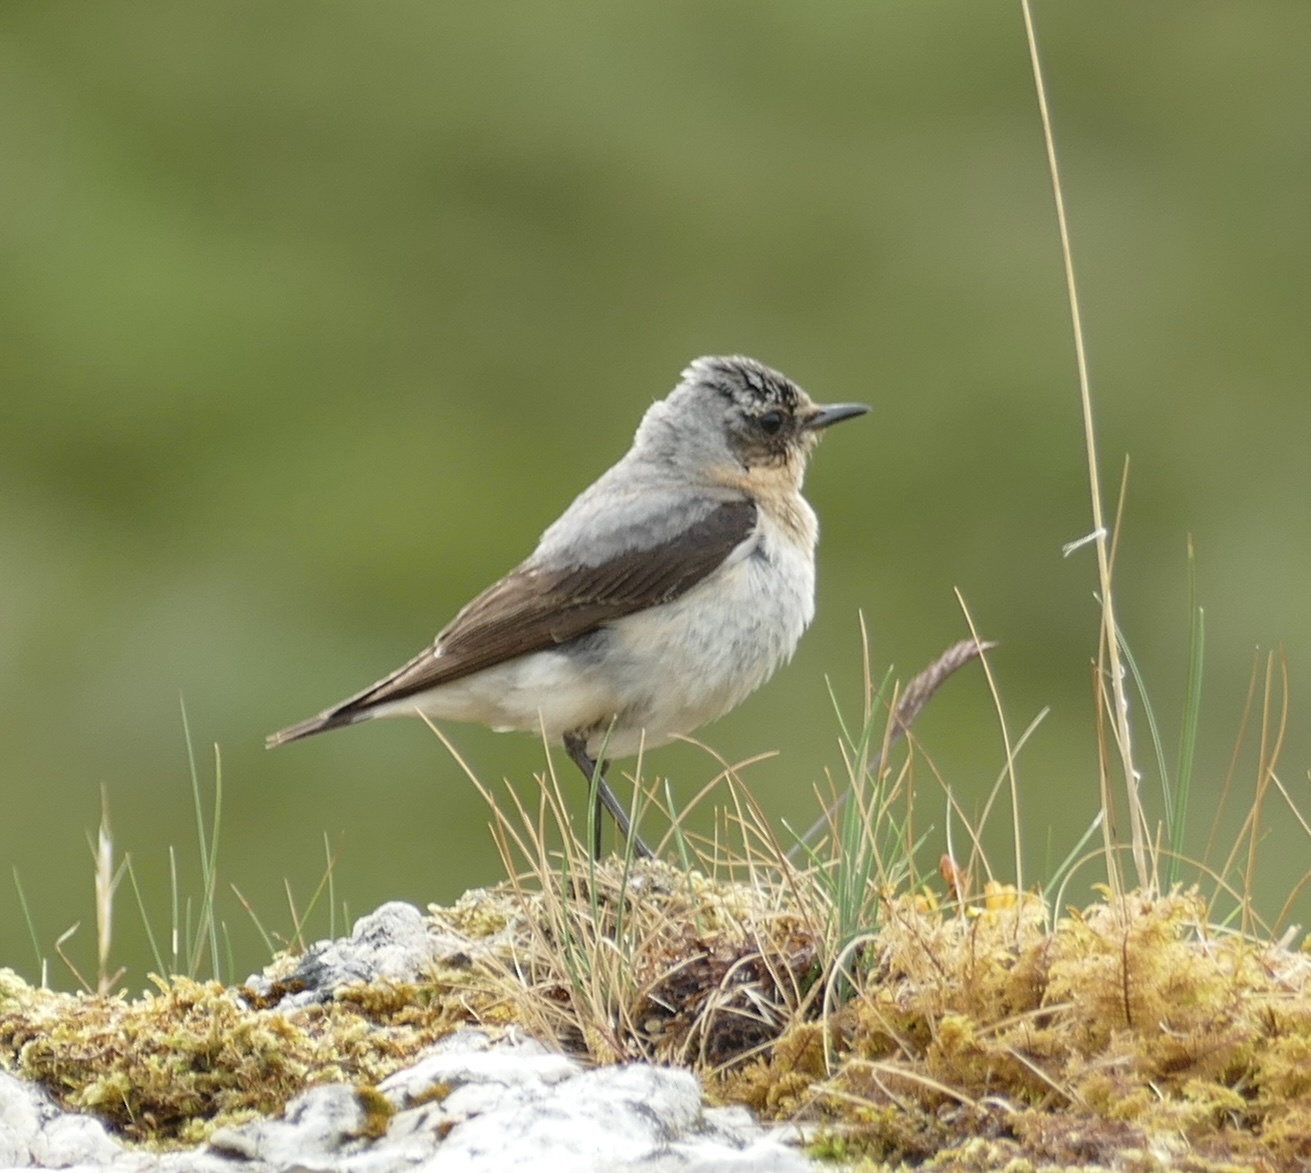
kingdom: Animalia
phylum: Chordata
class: Aves
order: Passeriformes
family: Muscicapidae
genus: Oenanthe
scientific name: Oenanthe oenanthe
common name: Northern wheatear
